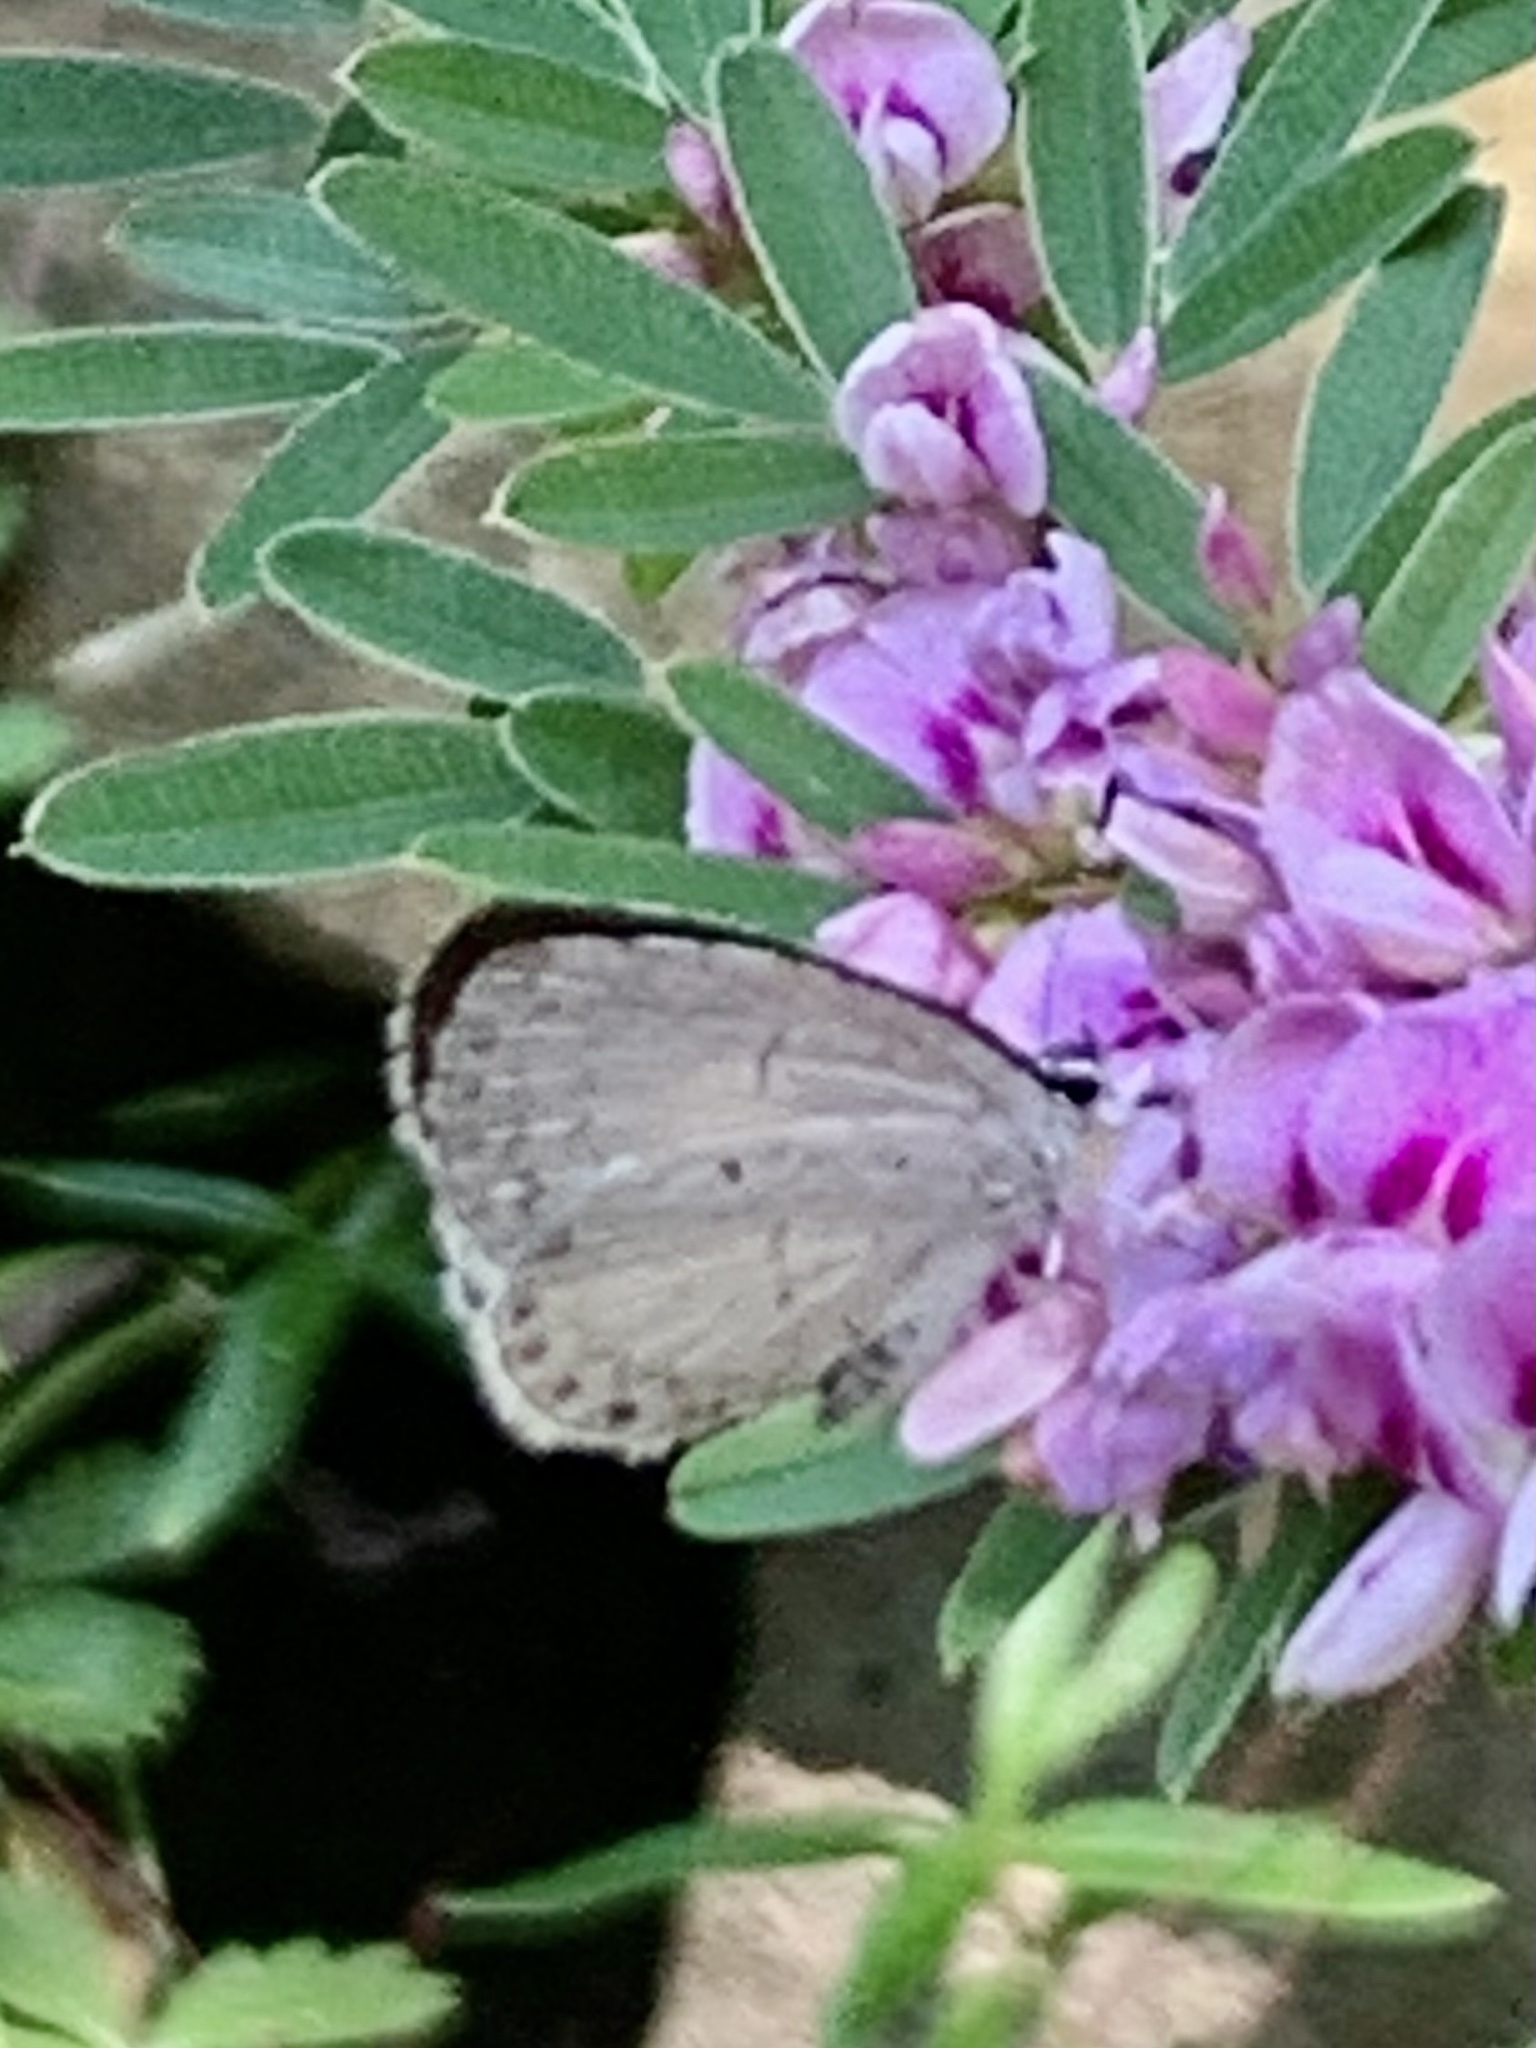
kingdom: Animalia
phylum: Arthropoda
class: Insecta
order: Lepidoptera
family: Lycaenidae
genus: Cyaniris
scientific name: Cyaniris neglecta
